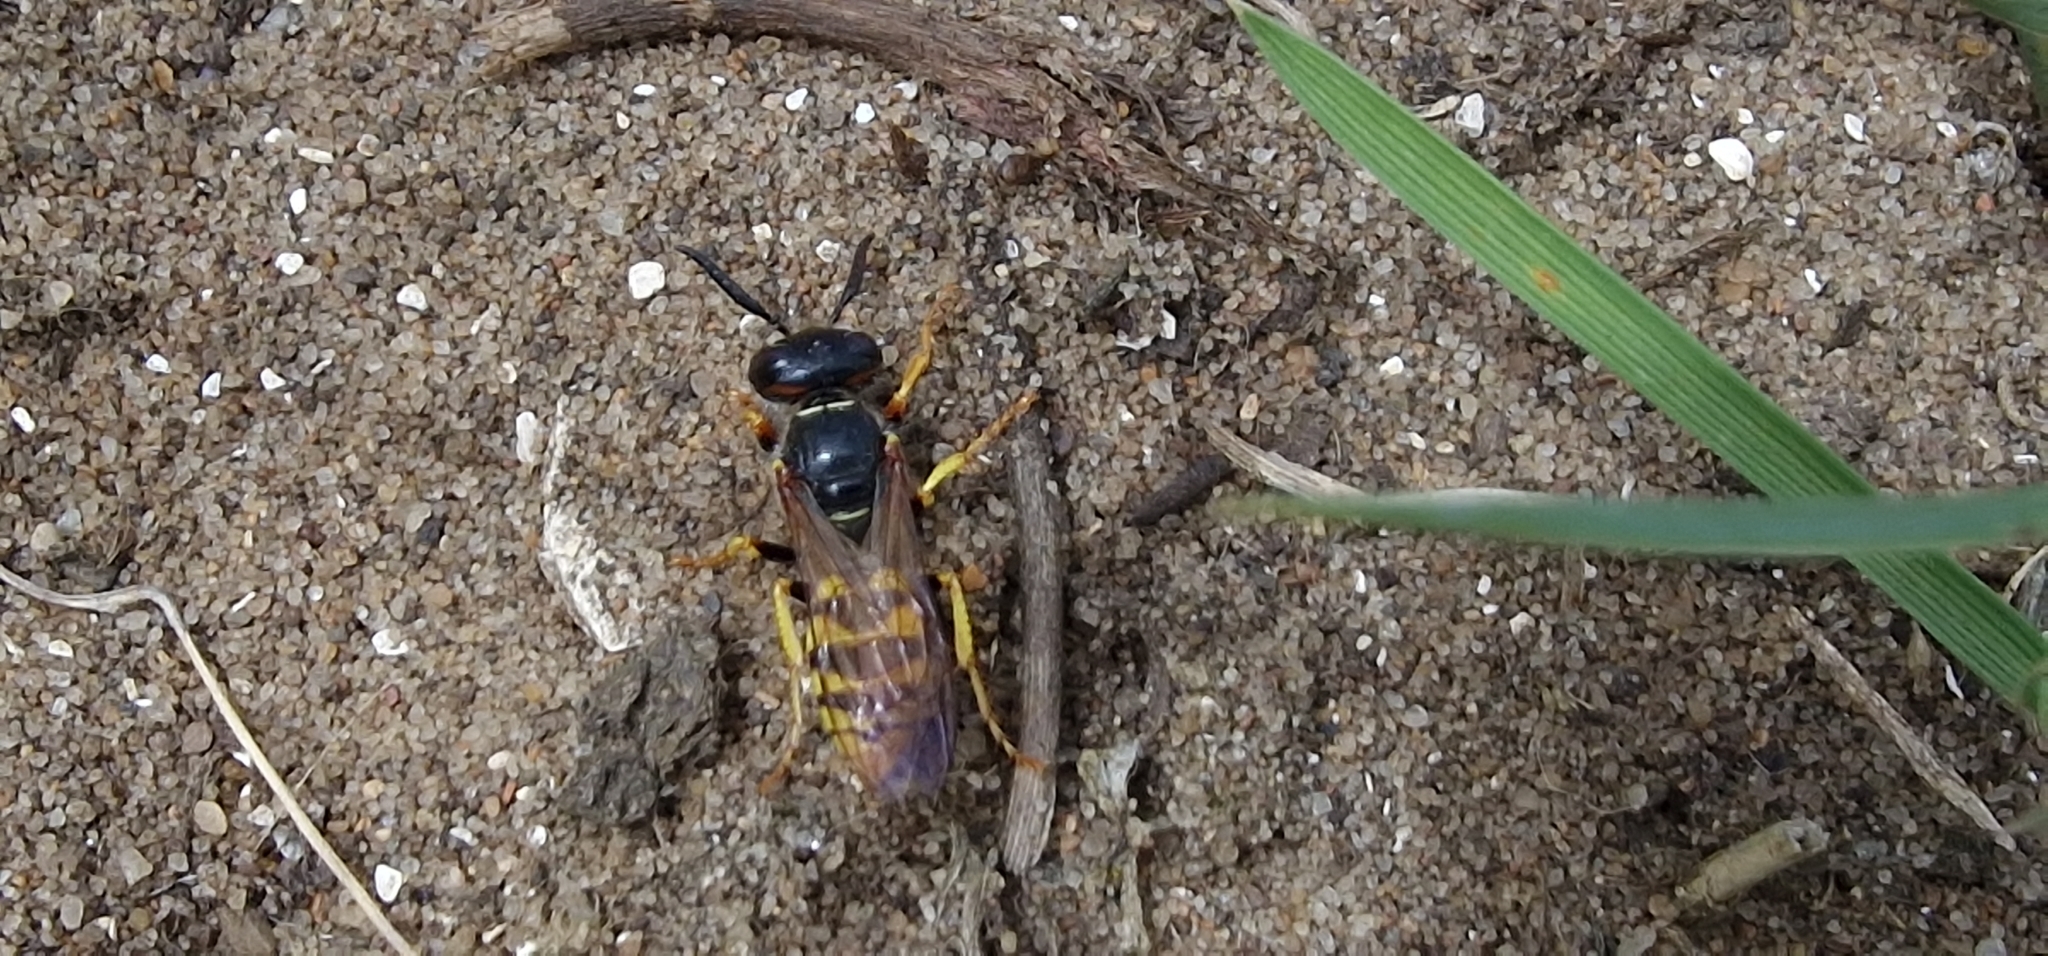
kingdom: Animalia
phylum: Arthropoda
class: Insecta
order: Hymenoptera
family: Crabronidae
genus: Philanthus
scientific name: Philanthus triangulum
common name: Bee wolf
